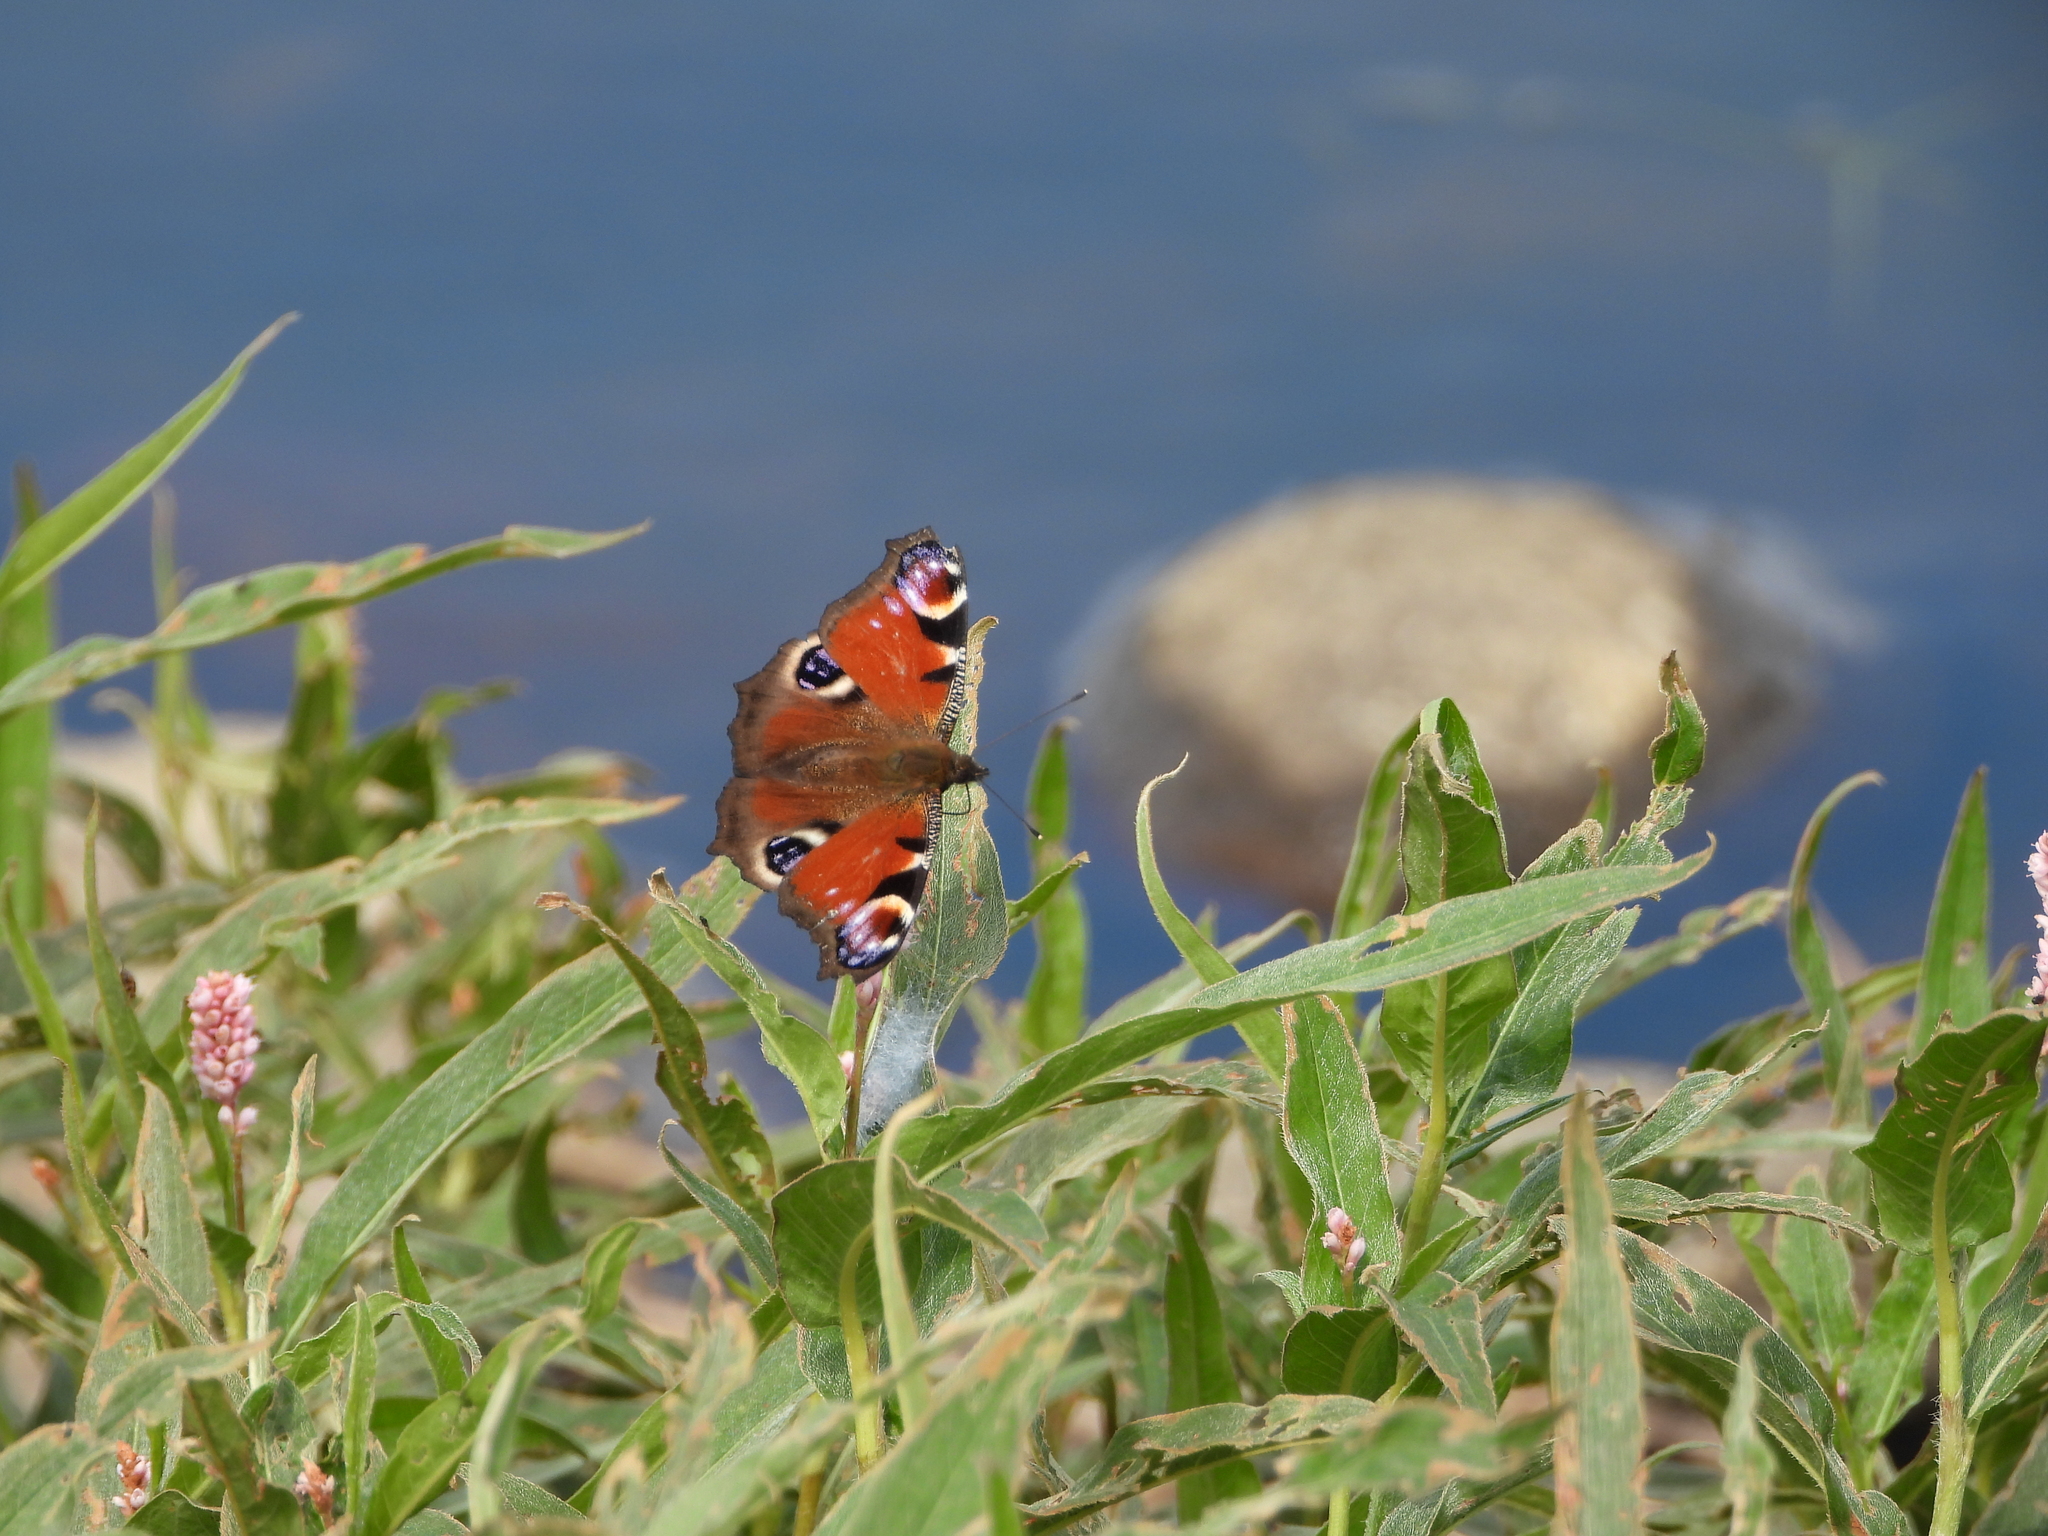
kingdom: Animalia
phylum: Arthropoda
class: Insecta
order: Lepidoptera
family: Nymphalidae
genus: Aglais
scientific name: Aglais io
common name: Peacock
